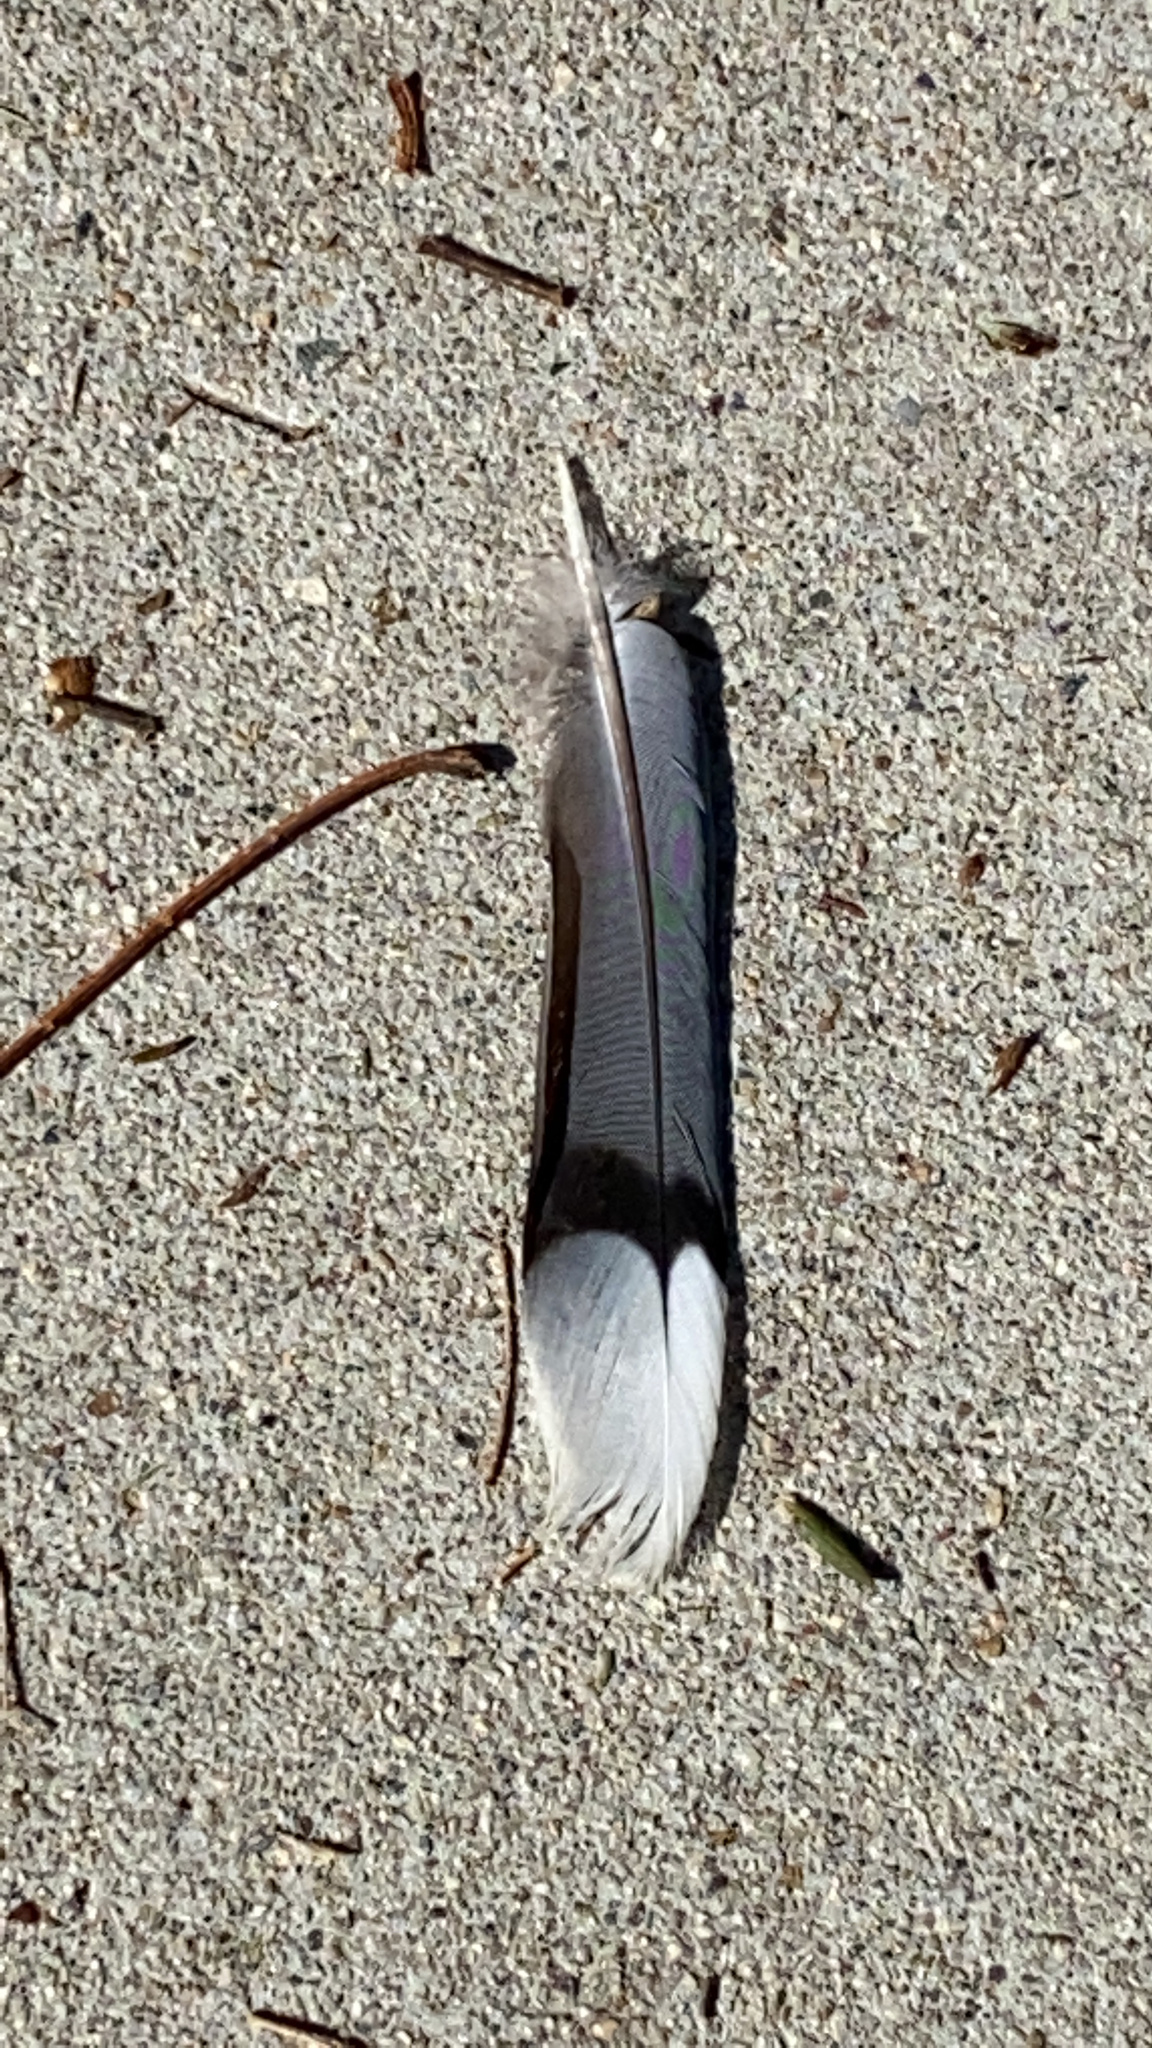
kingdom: Animalia
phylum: Chordata
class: Aves
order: Columbiformes
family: Columbidae
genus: Zenaida
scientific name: Zenaida macroura
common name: Mourning dove
